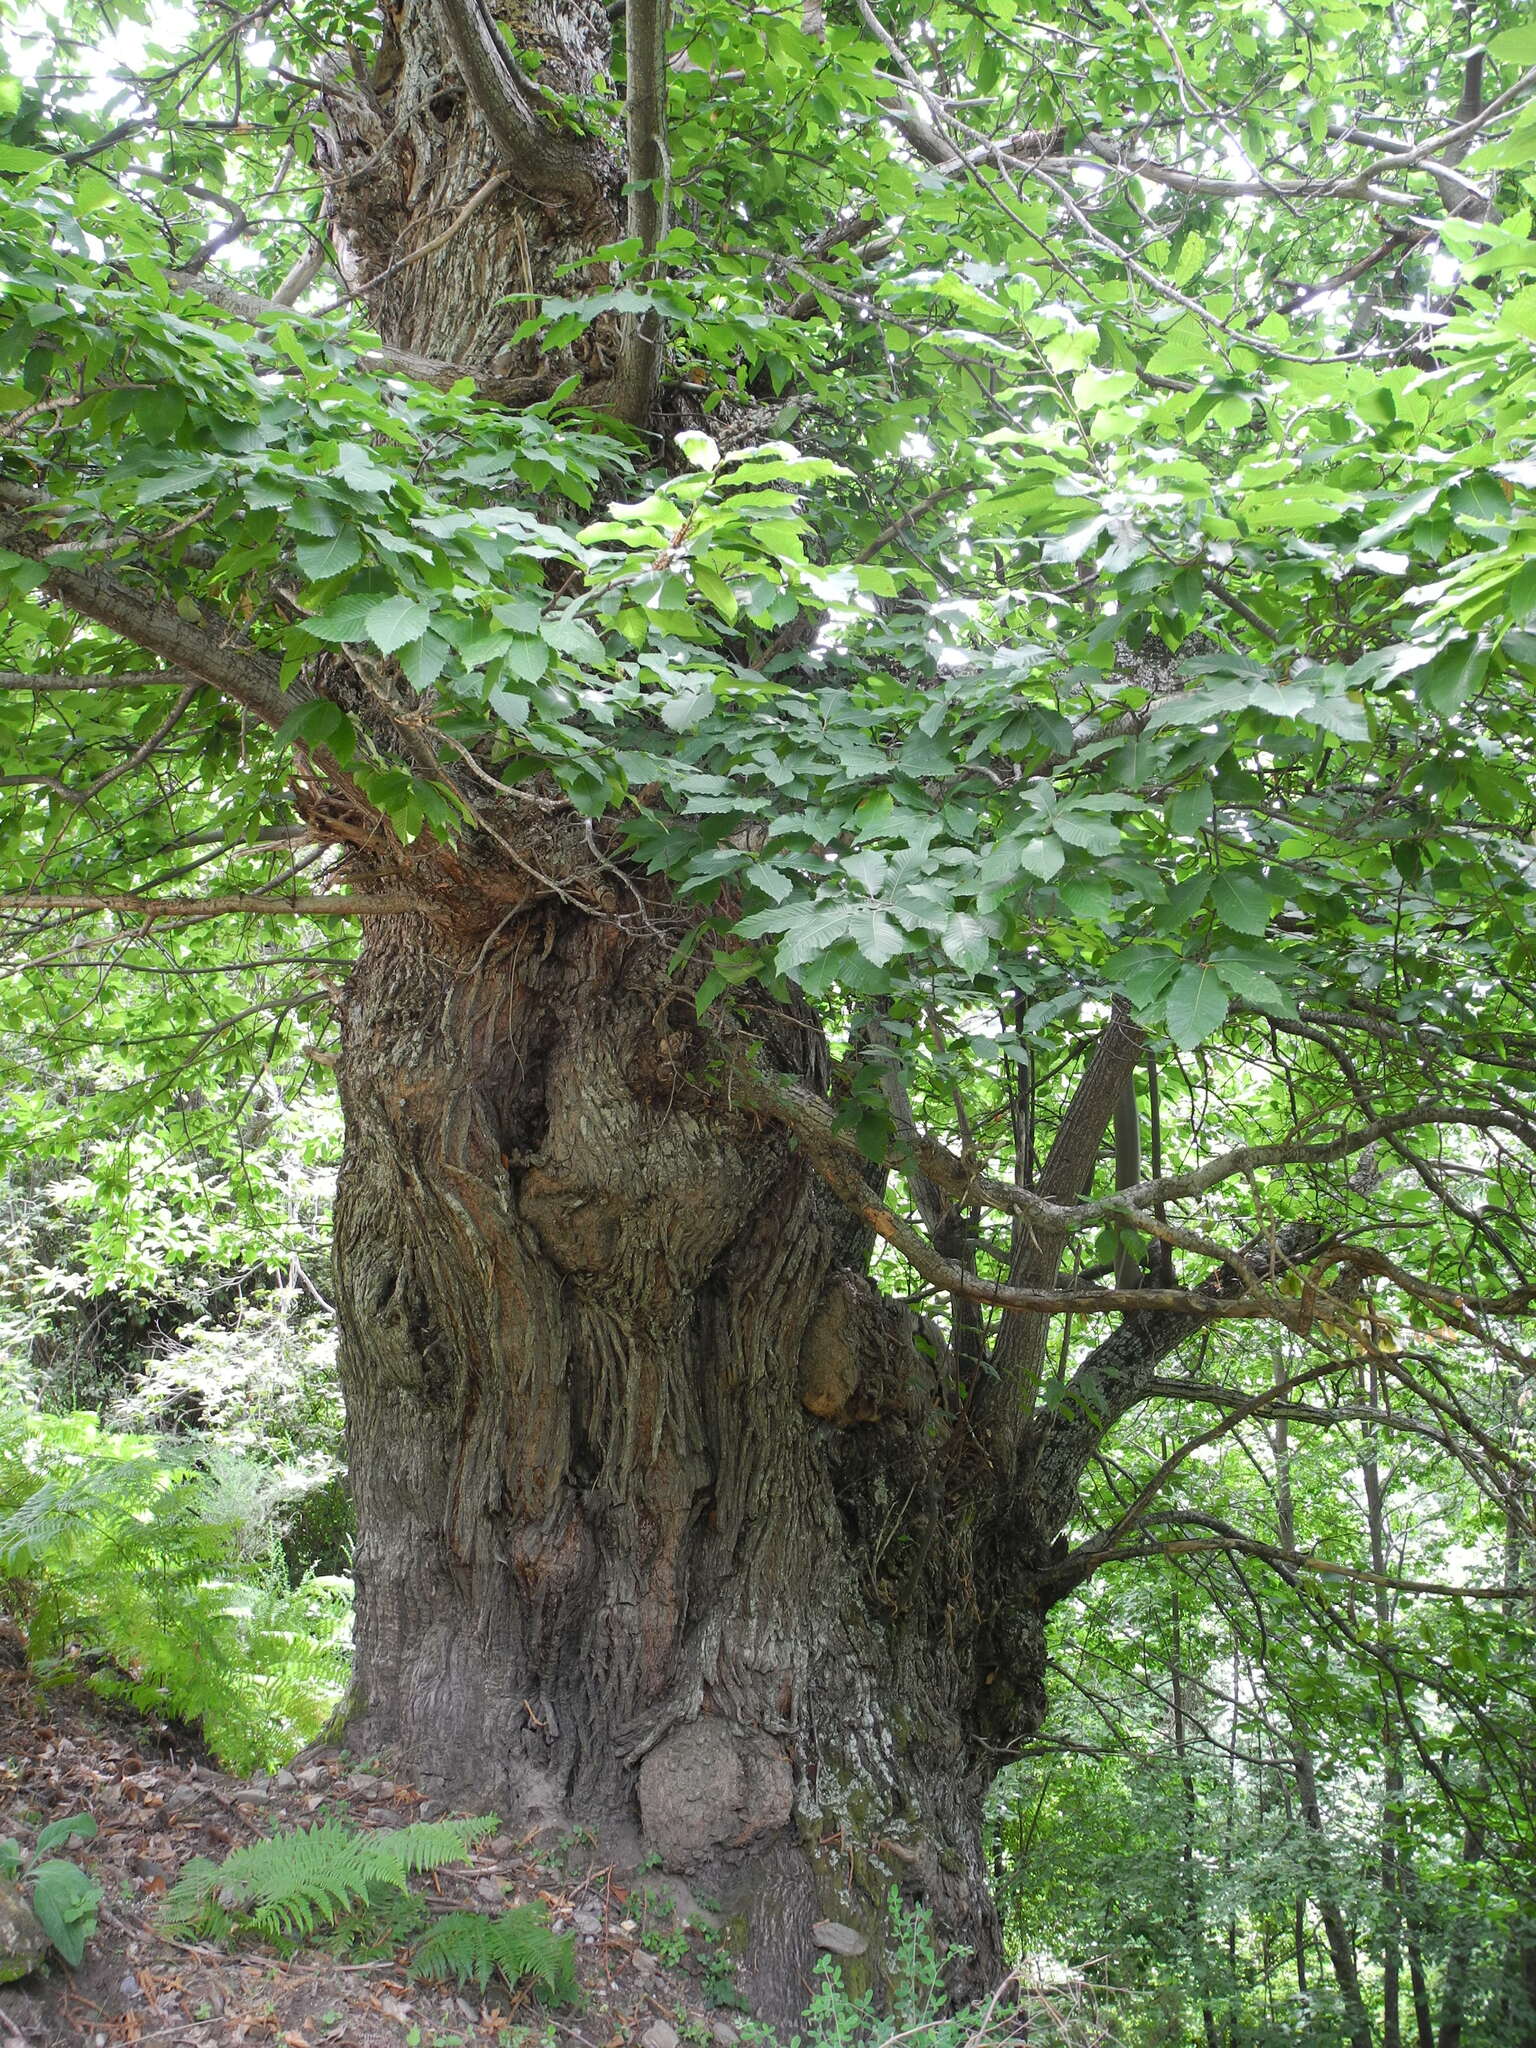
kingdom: Plantae
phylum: Tracheophyta
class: Magnoliopsida
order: Fagales
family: Fagaceae
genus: Castanea
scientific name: Castanea sativa
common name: Sweet chestnut
